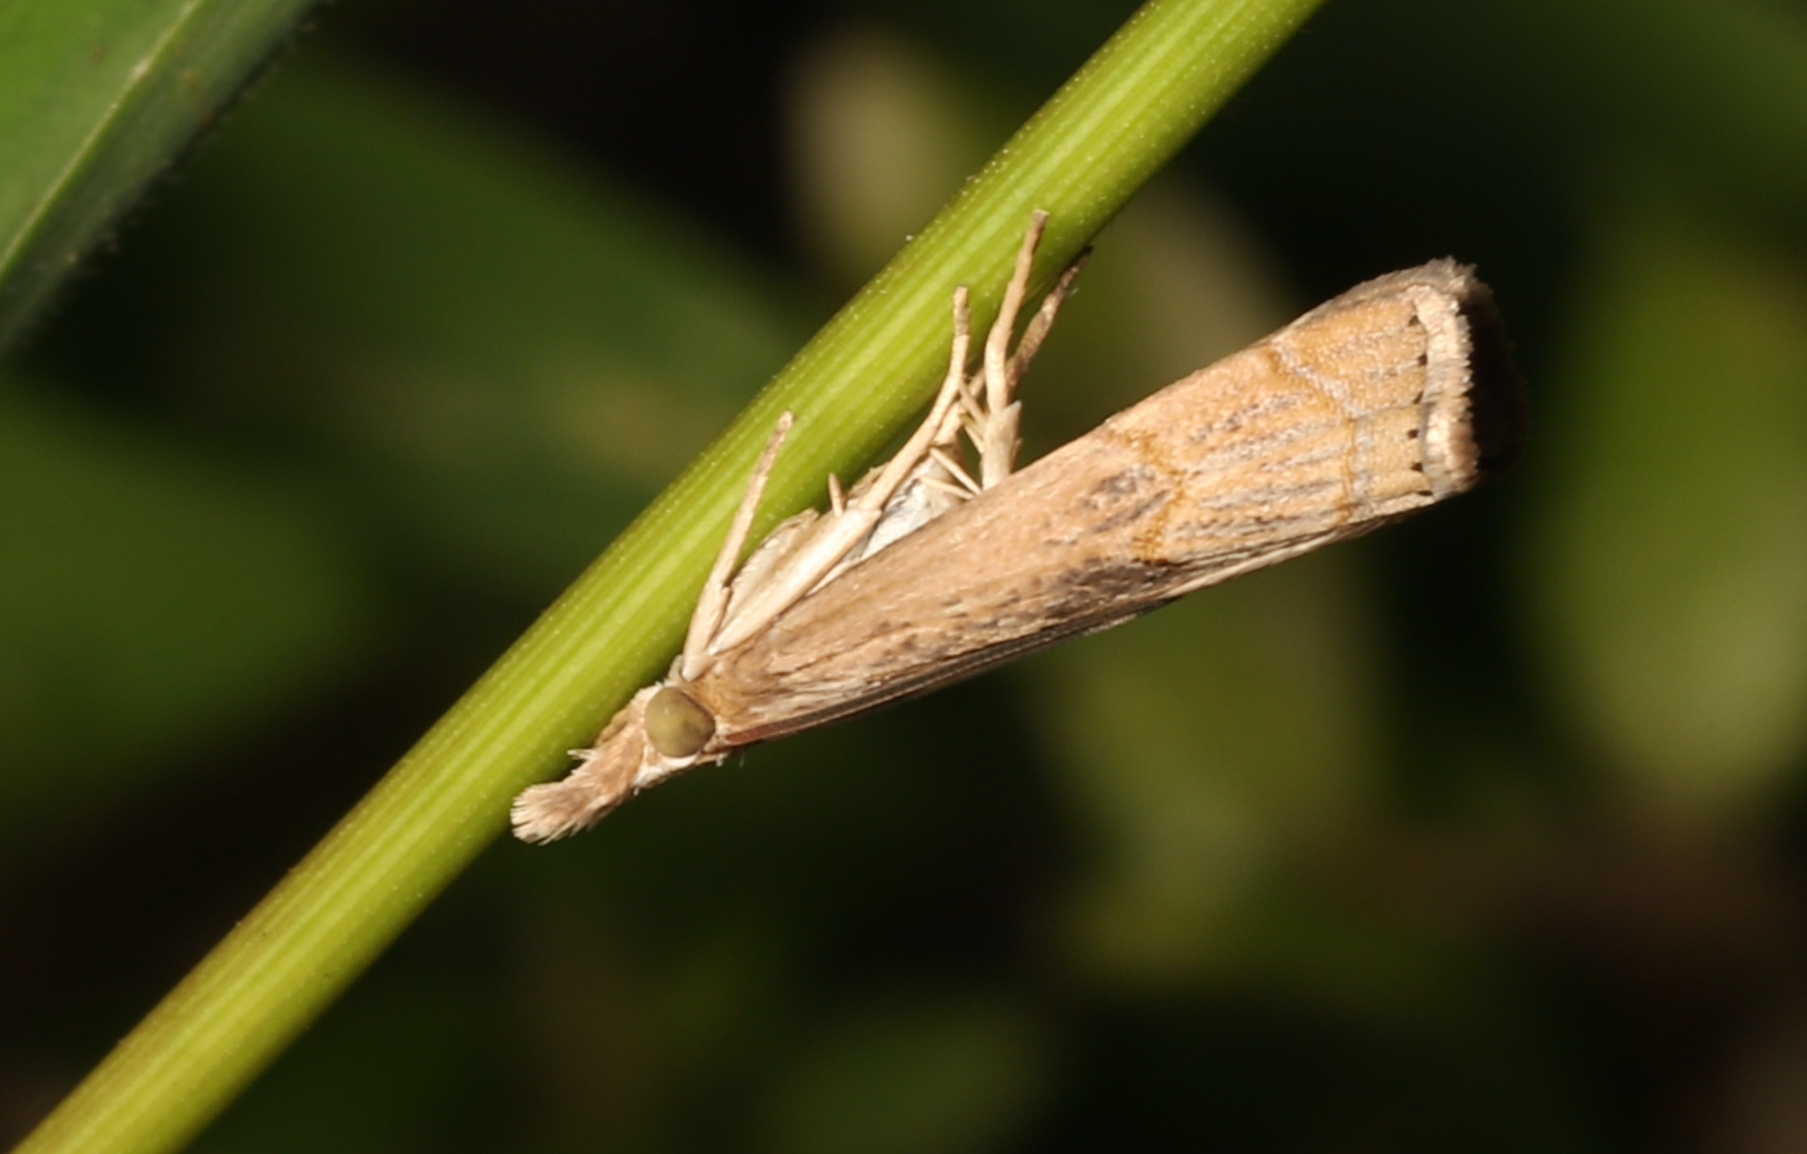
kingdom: Animalia
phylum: Arthropoda
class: Insecta
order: Lepidoptera
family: Crambidae
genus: Parapediasia
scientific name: Parapediasia teterellus
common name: Bluegrass webworm moth
